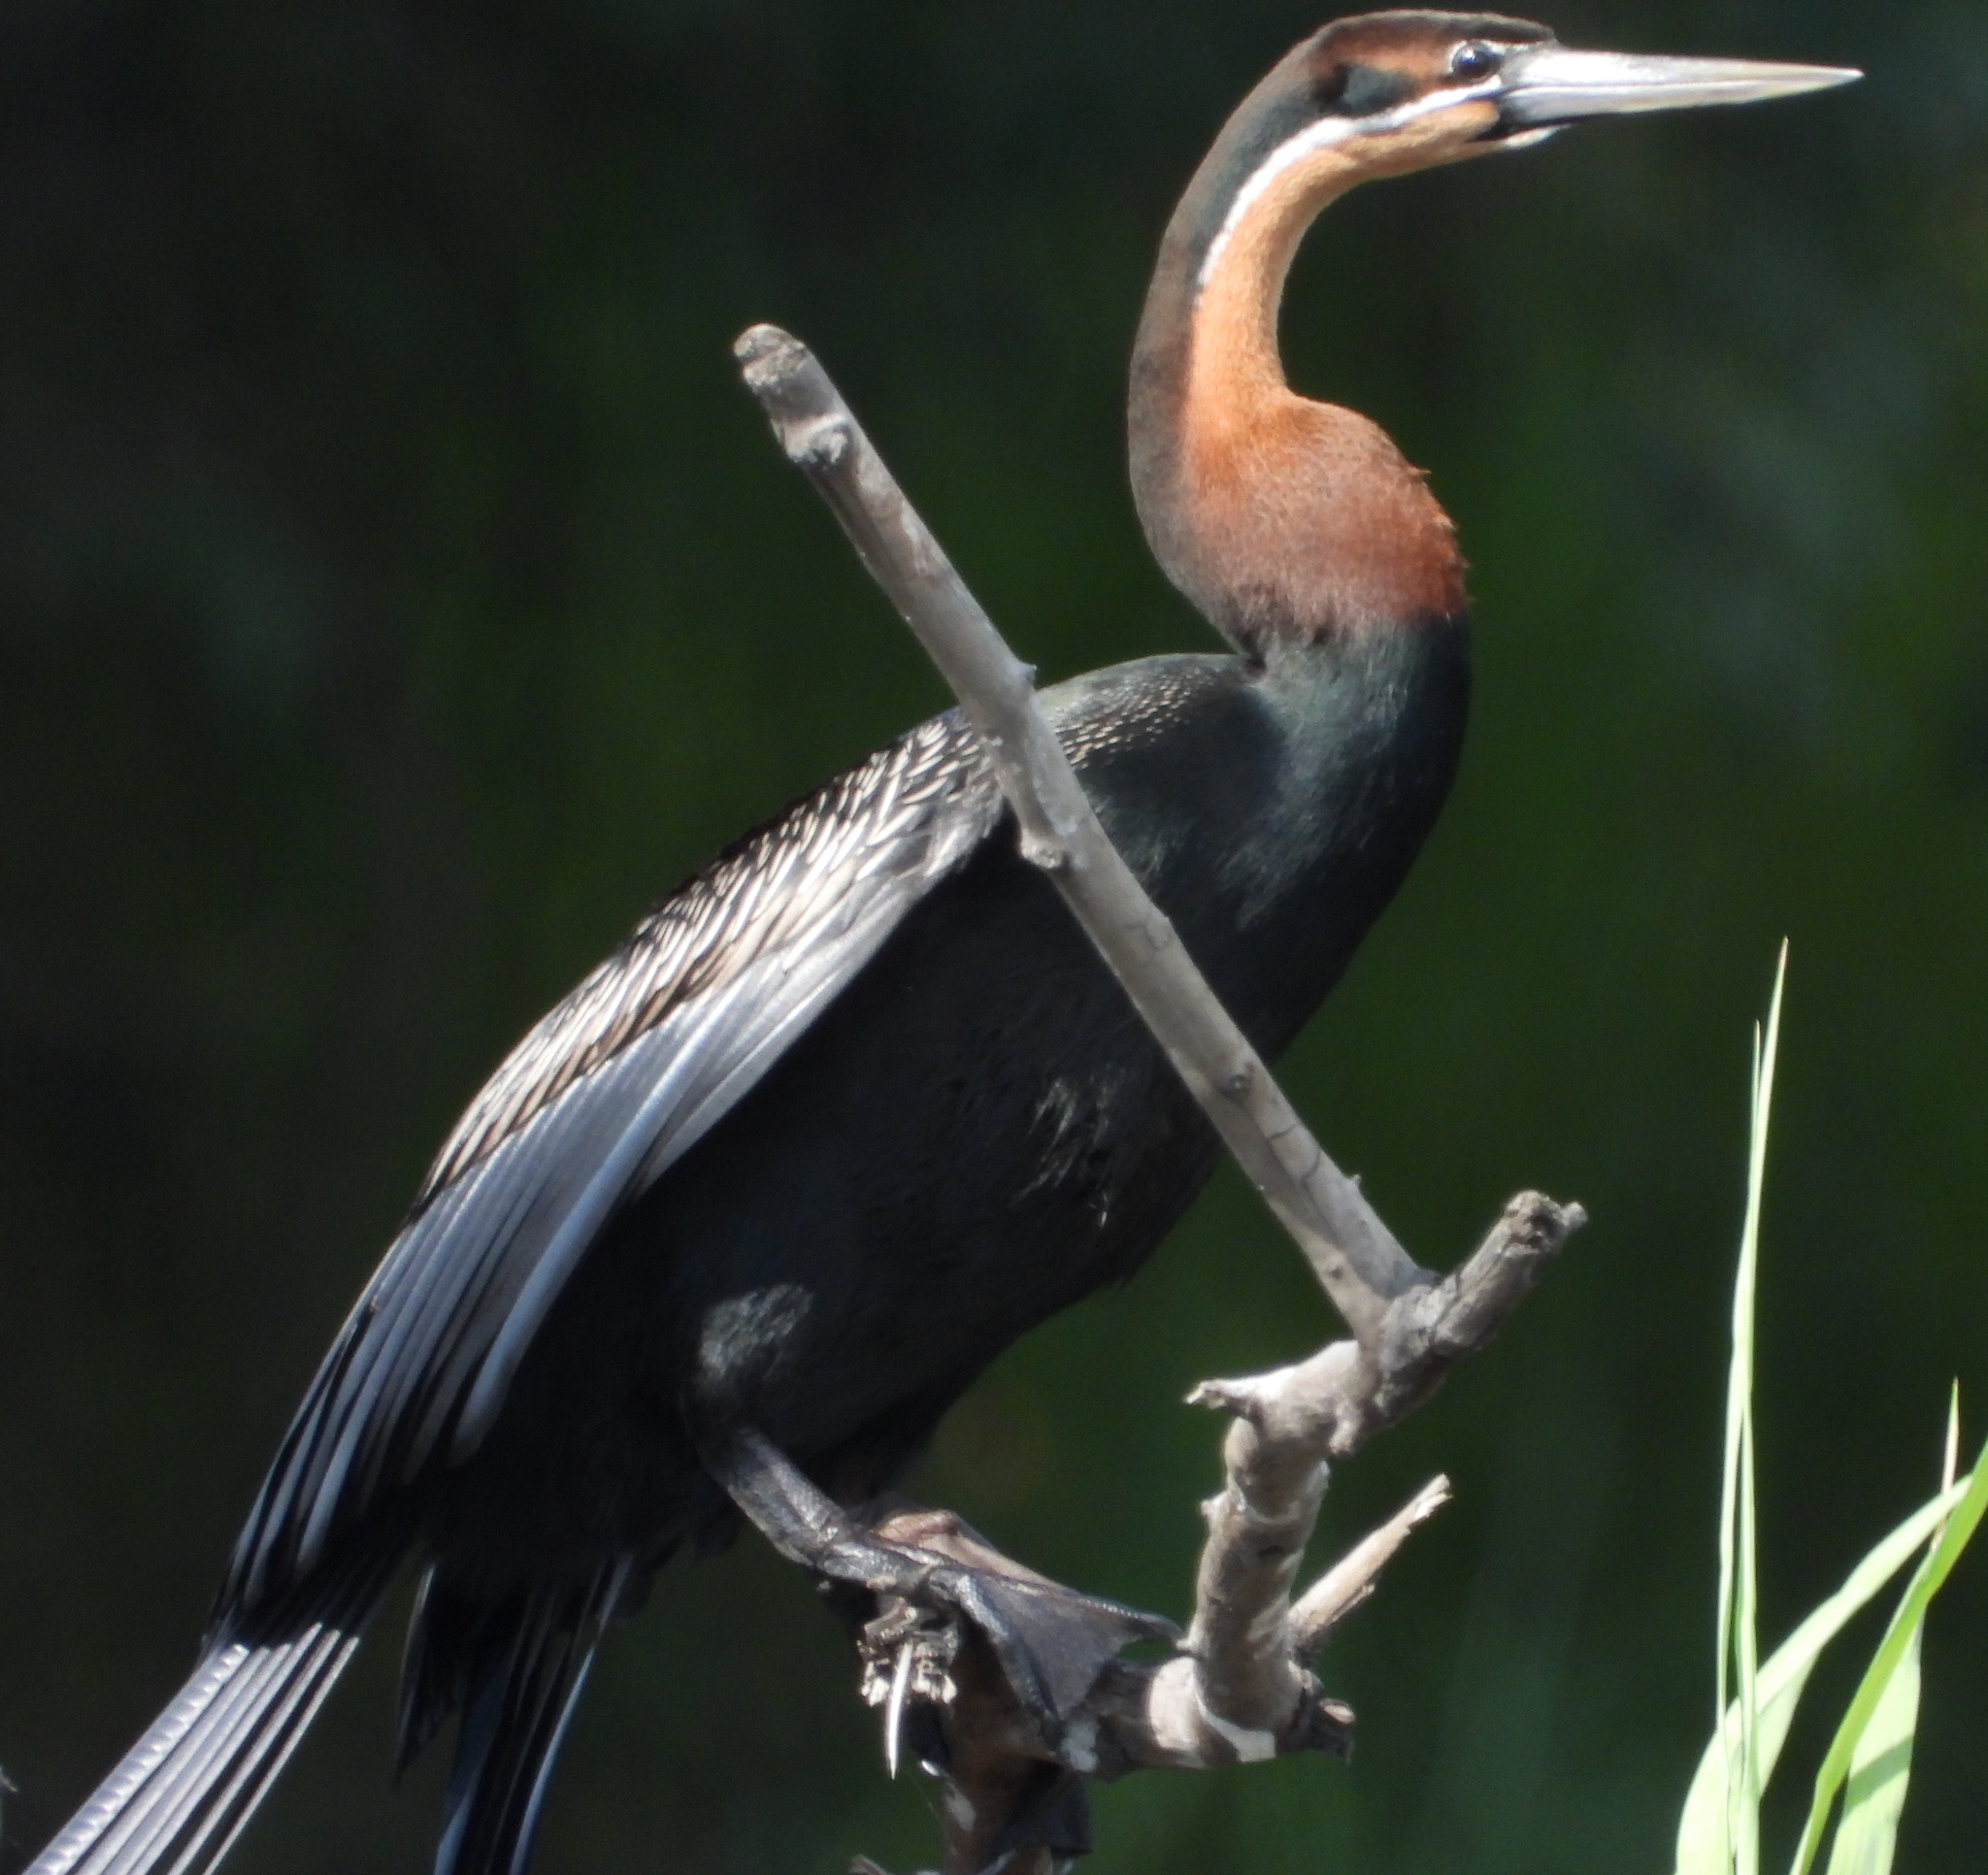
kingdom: Animalia
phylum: Chordata
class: Aves
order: Suliformes
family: Anhingidae
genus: Anhinga
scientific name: Anhinga rufa
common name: African darter
